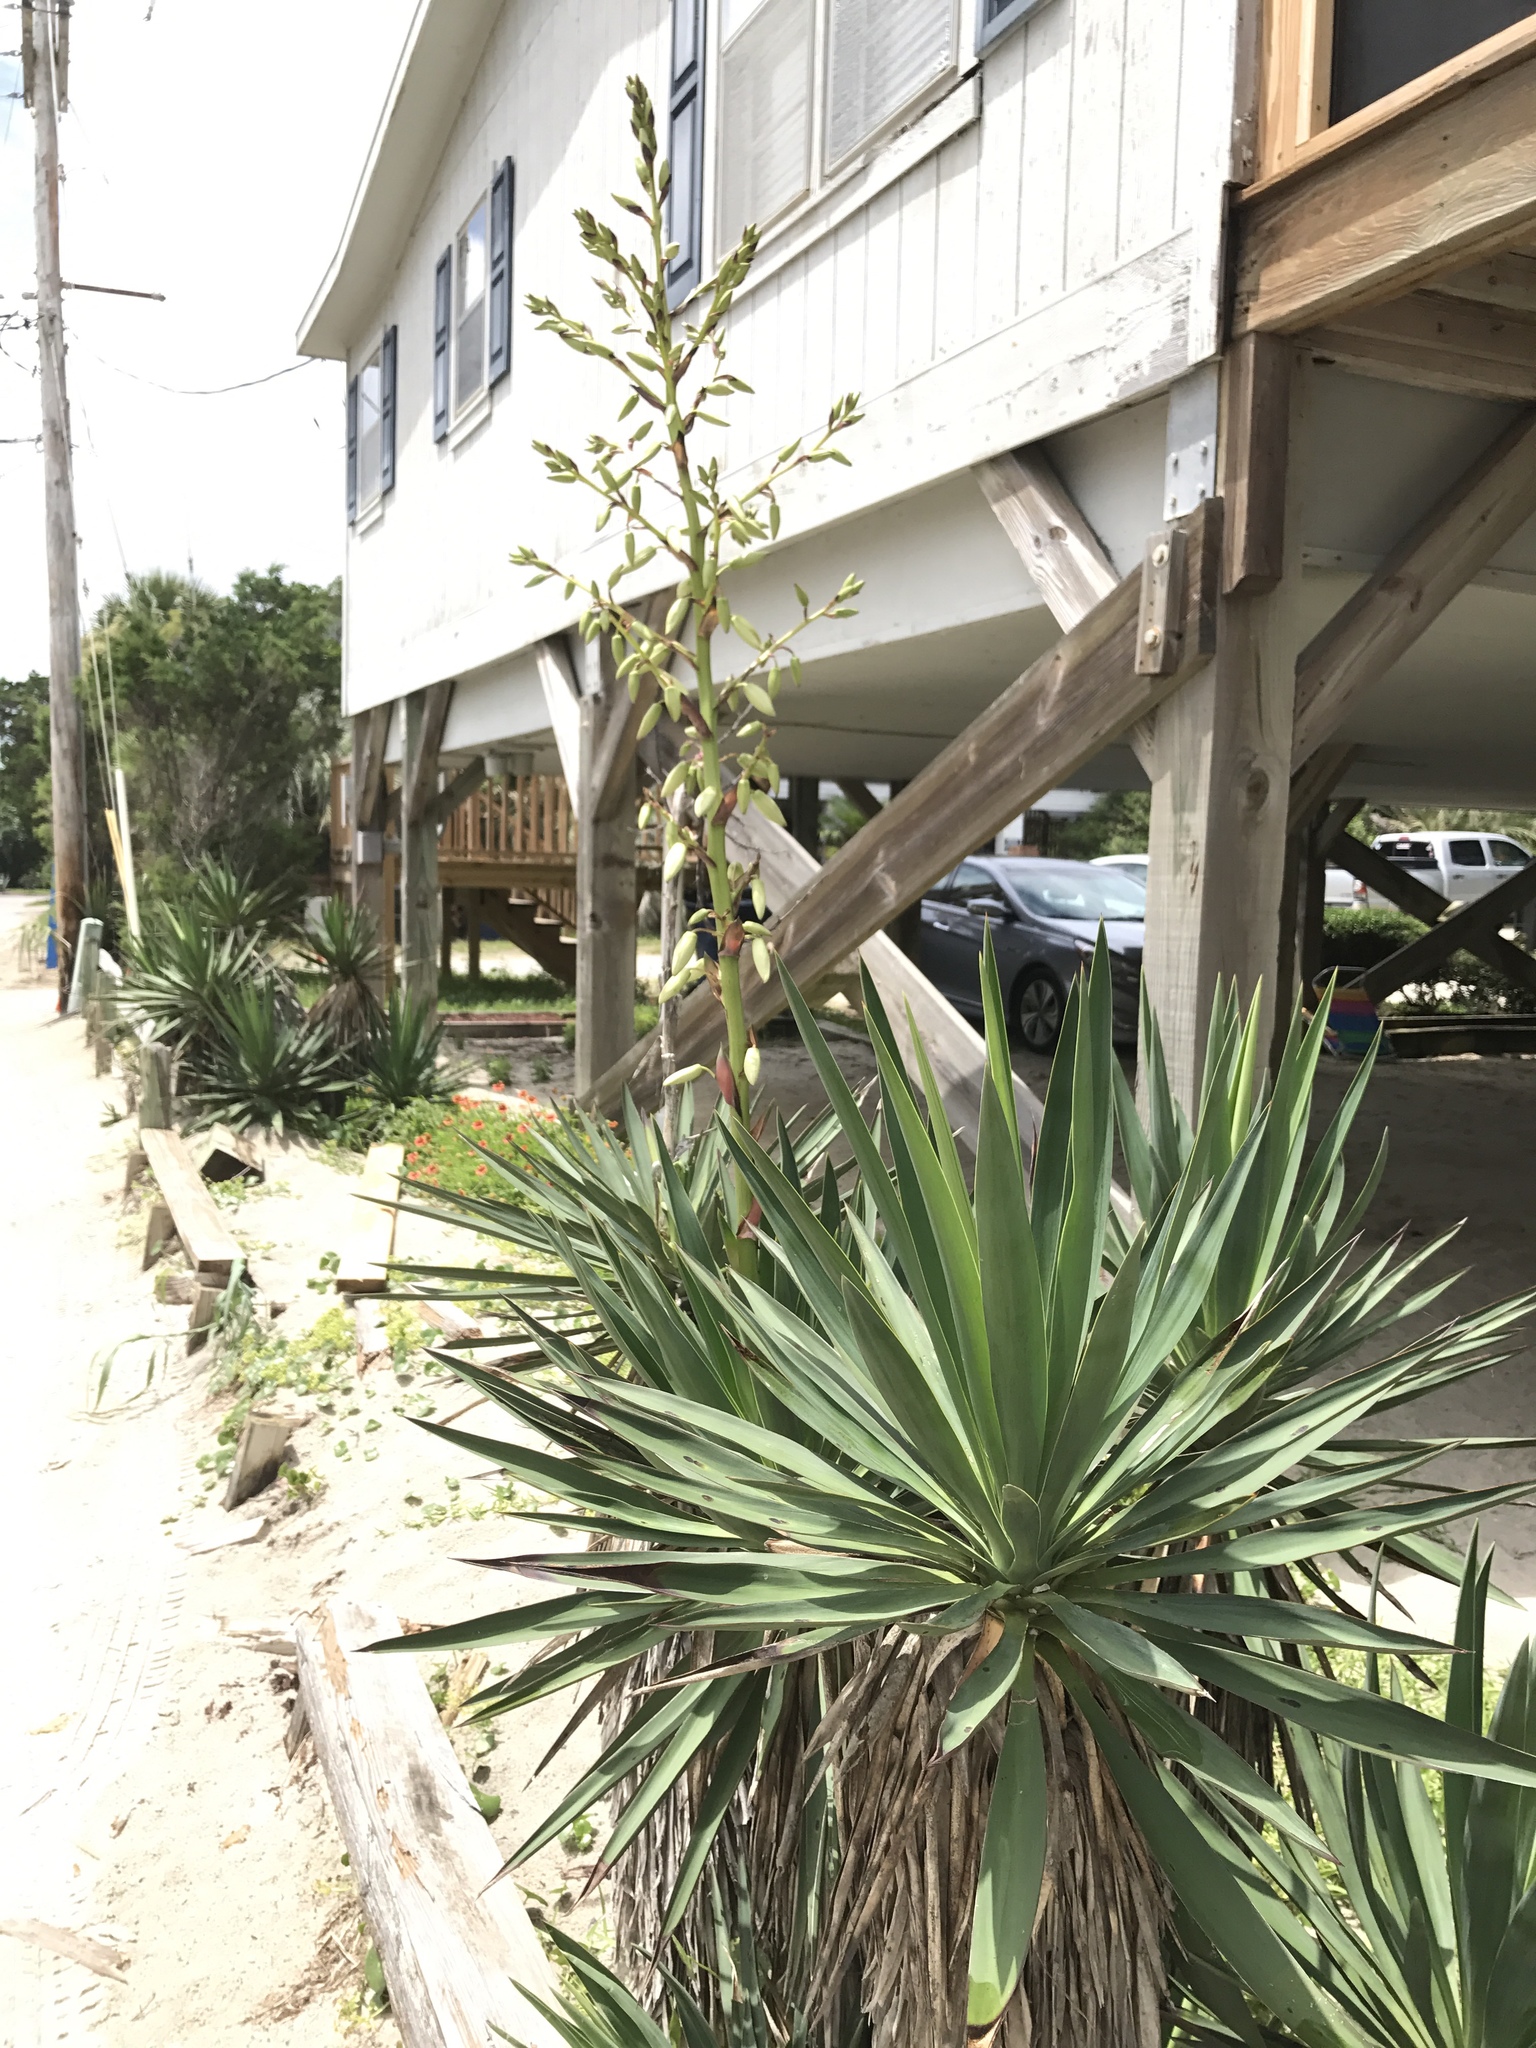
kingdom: Plantae
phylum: Tracheophyta
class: Liliopsida
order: Asparagales
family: Asparagaceae
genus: Yucca
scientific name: Yucca gloriosa
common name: Spanish-dagger
